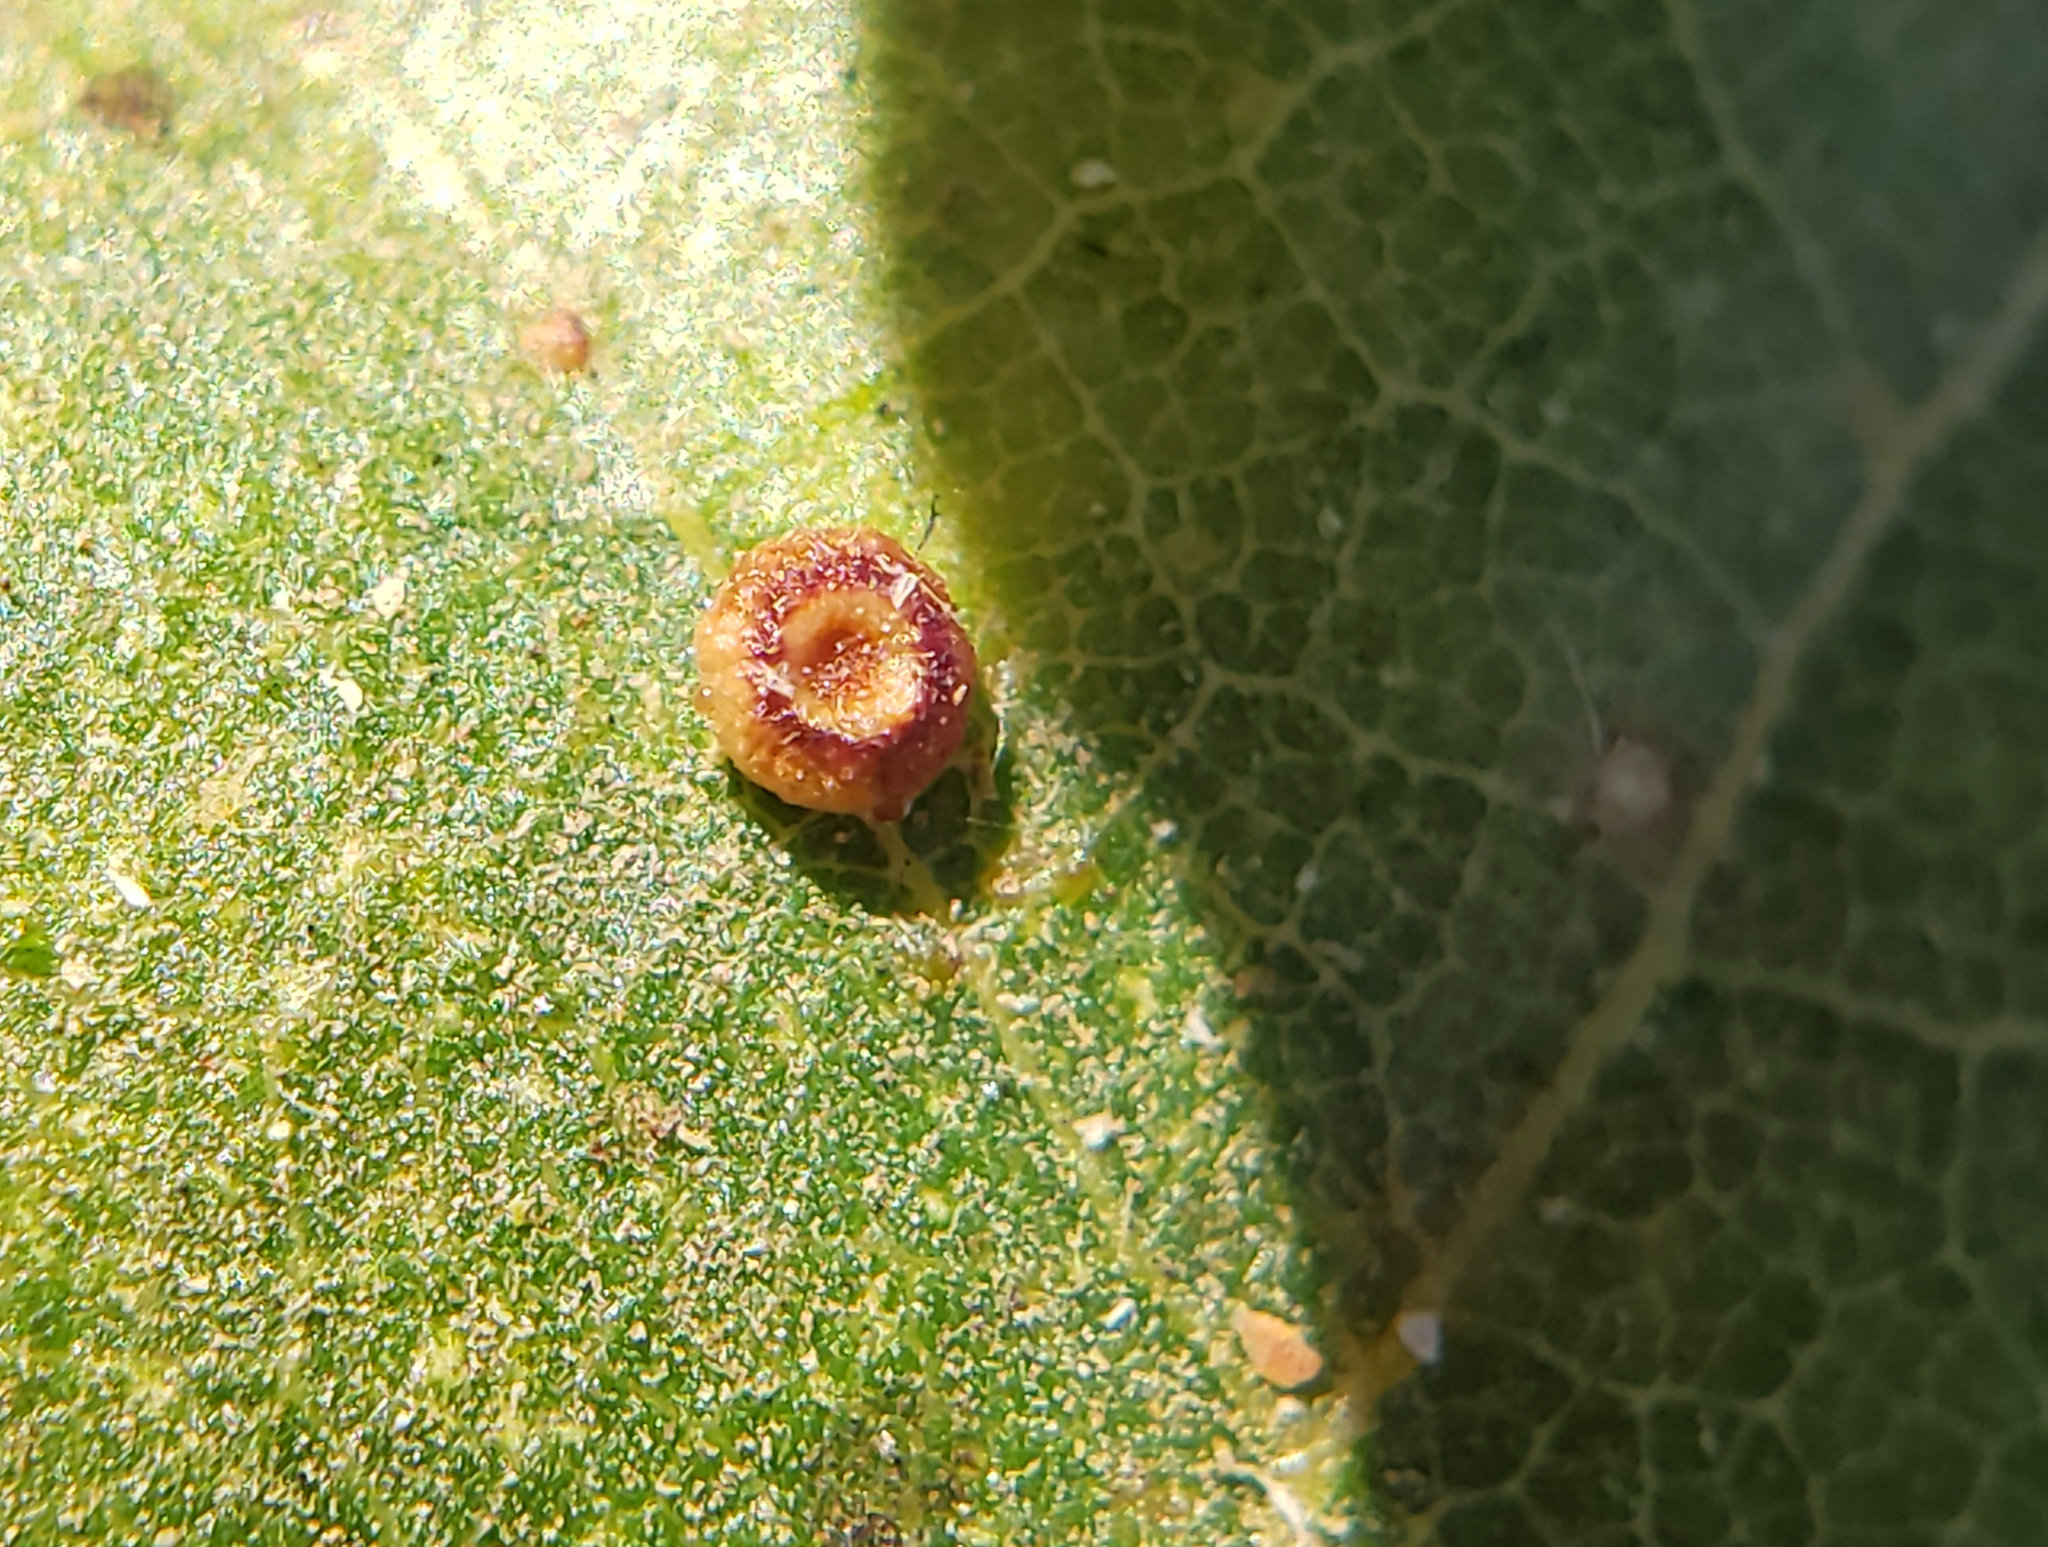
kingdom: Animalia
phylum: Arthropoda
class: Insecta
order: Hymenoptera
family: Cynipidae
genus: Dryocosmus
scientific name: Dryocosmus
